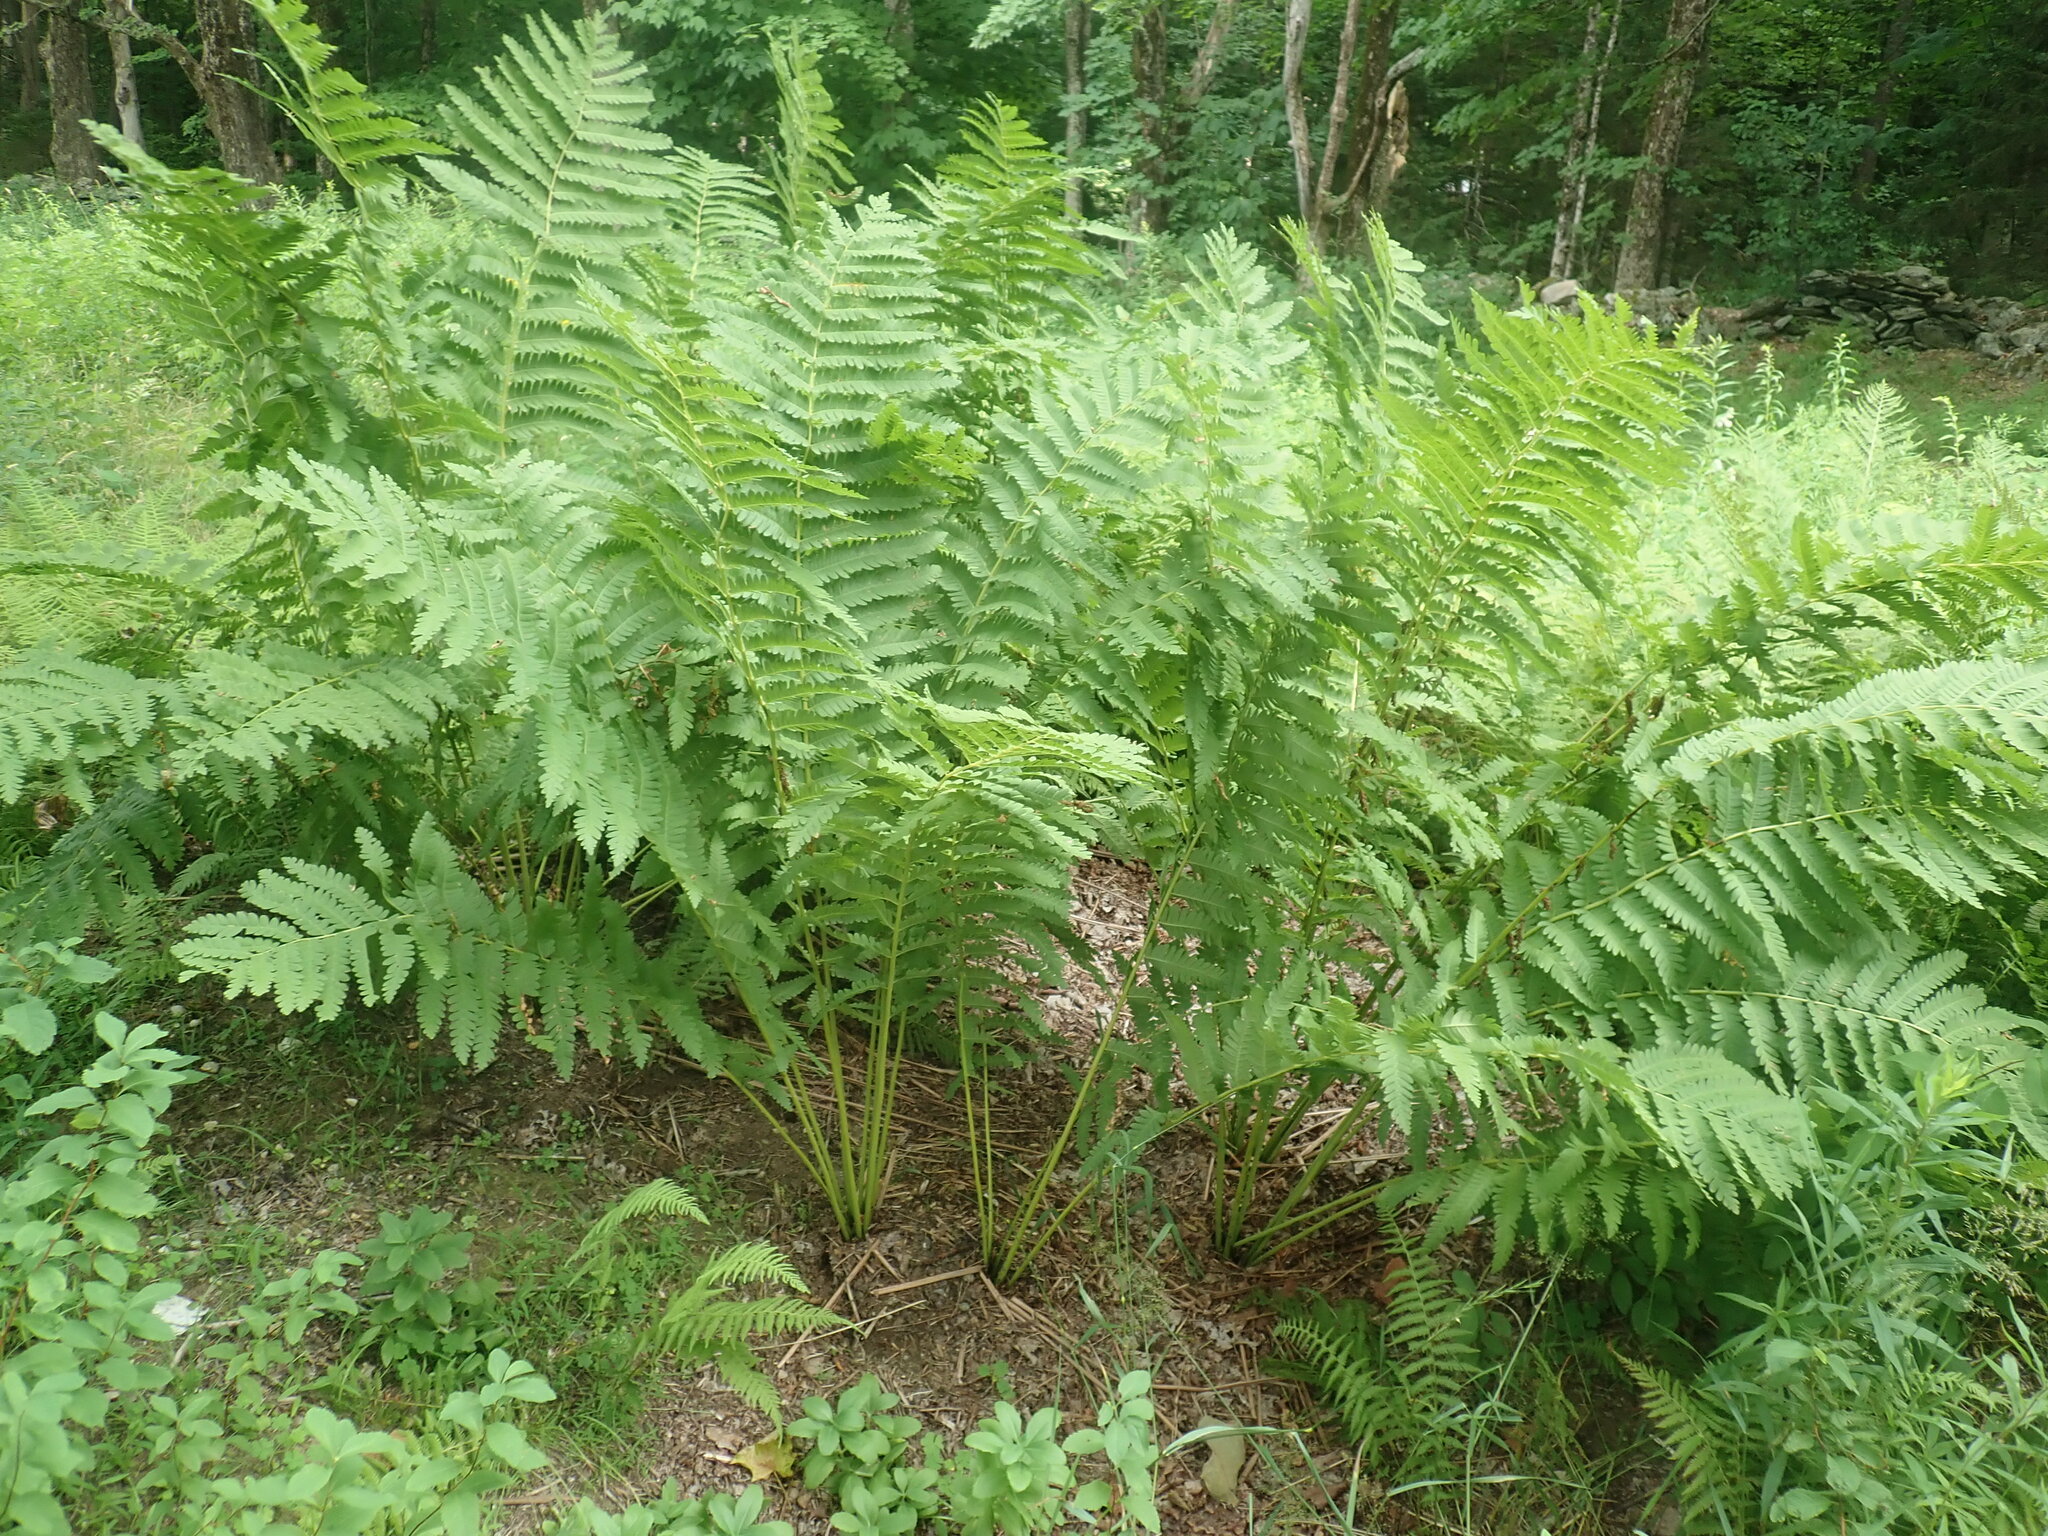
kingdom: Plantae
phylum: Tracheophyta
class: Polypodiopsida
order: Osmundales
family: Osmundaceae
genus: Claytosmunda
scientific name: Claytosmunda claytoniana
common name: Clayton's fern
